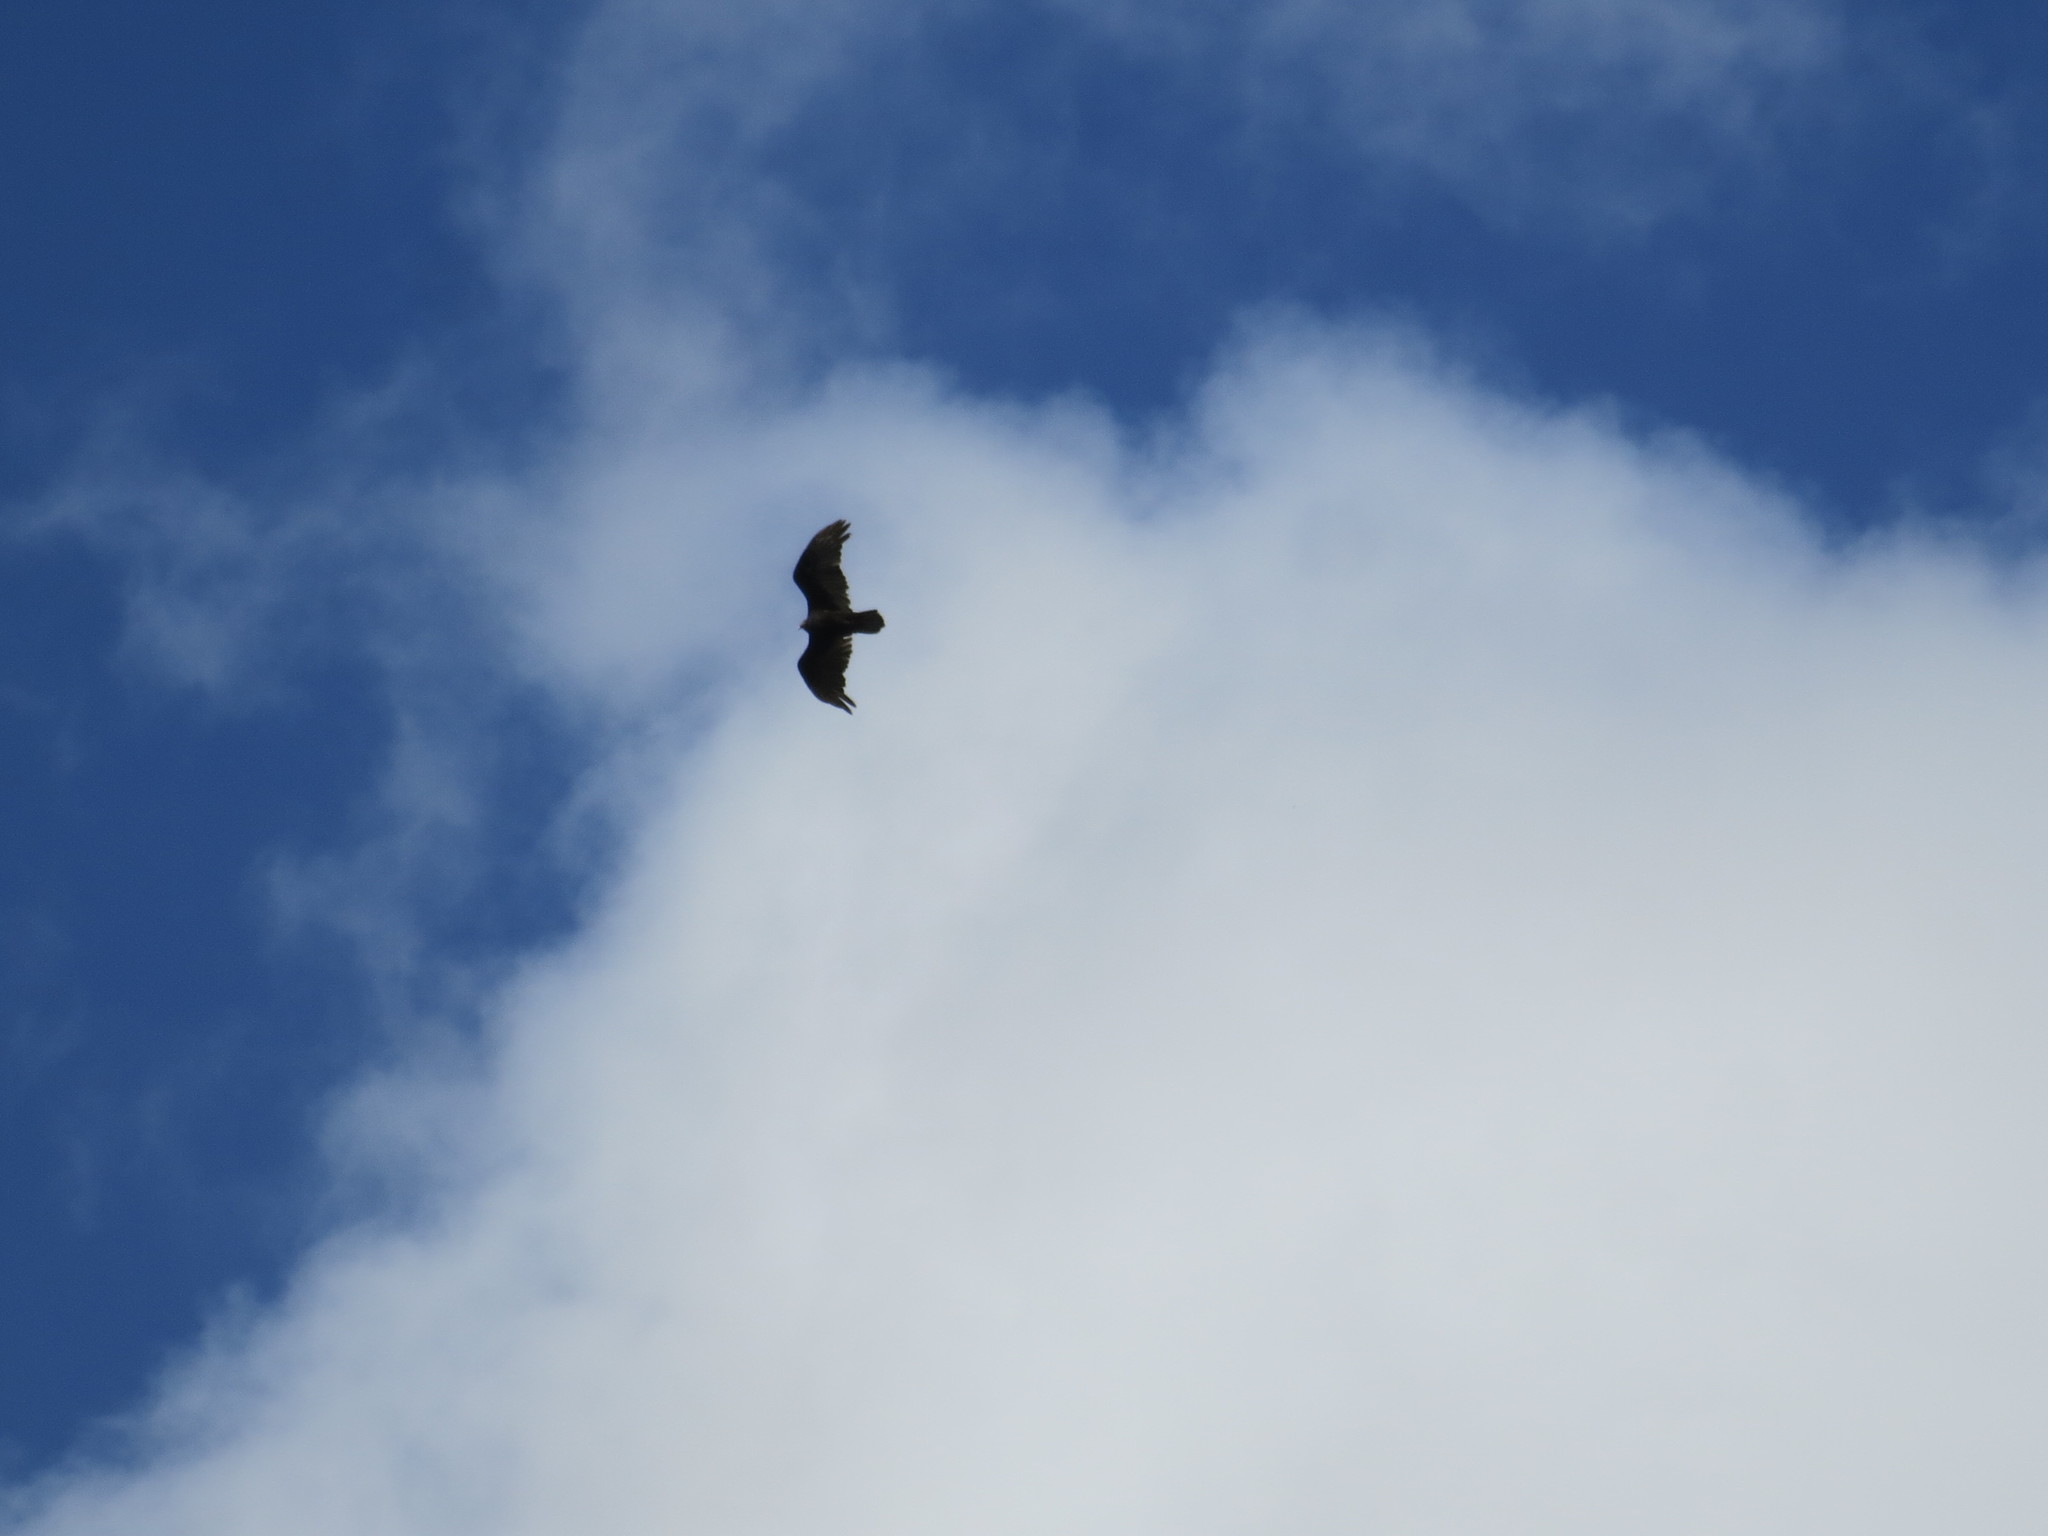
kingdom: Animalia
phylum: Chordata
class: Aves
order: Accipitriformes
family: Cathartidae
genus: Cathartes
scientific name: Cathartes aura
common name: Turkey vulture
